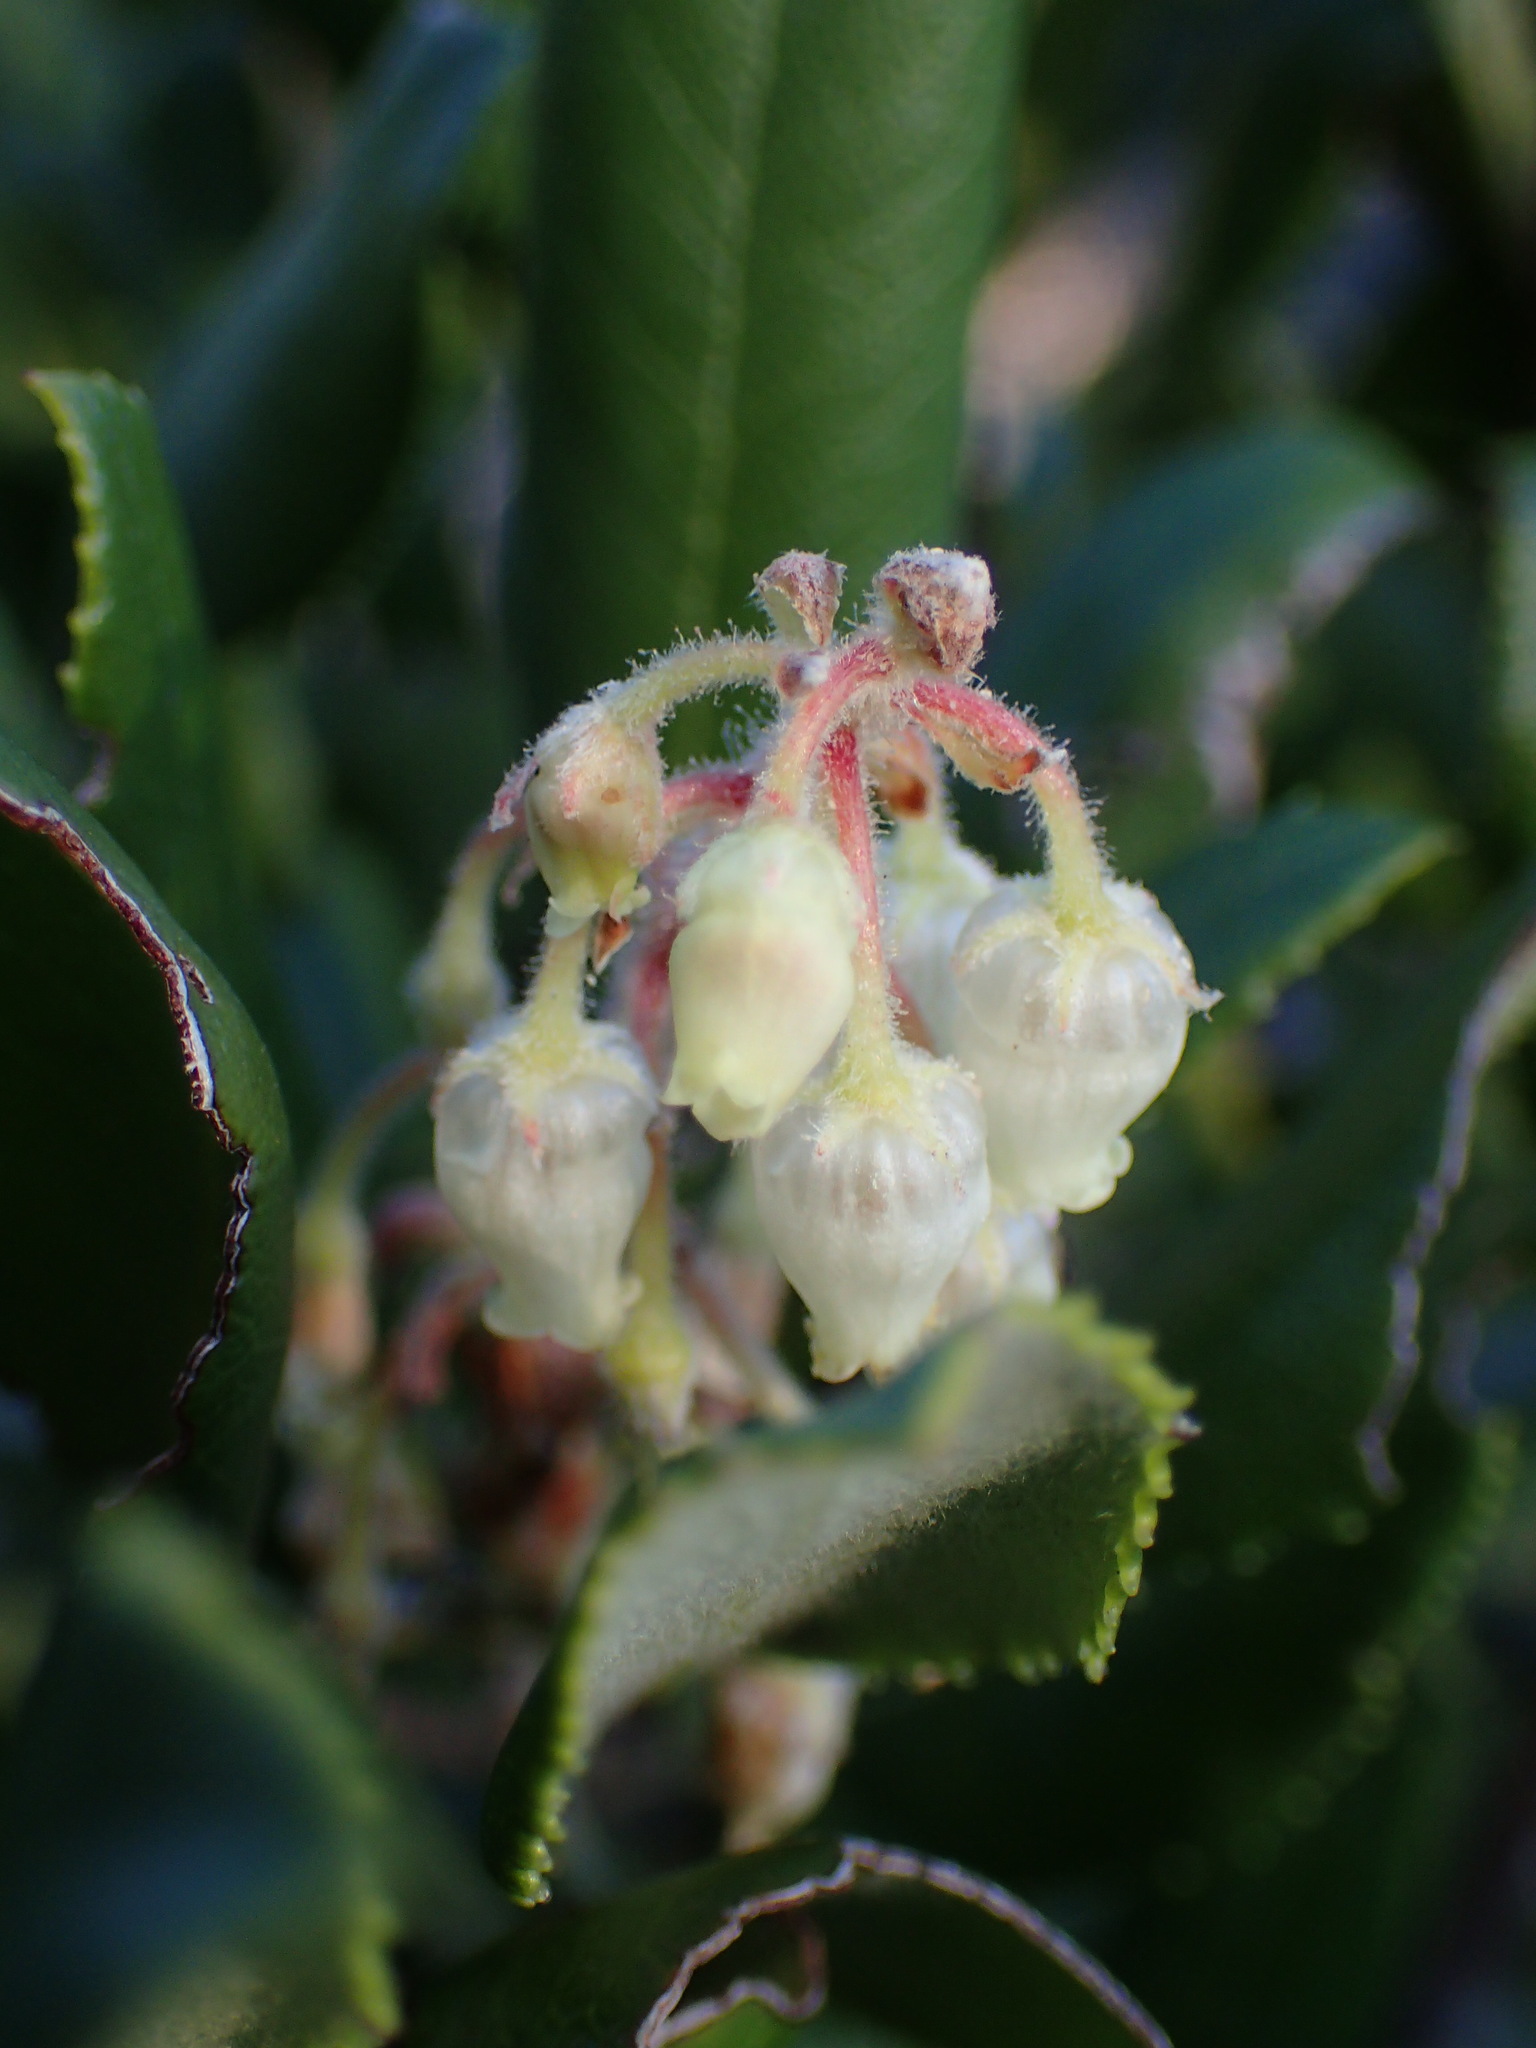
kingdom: Plantae
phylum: Tracheophyta
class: Magnoliopsida
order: Ericales
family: Ericaceae
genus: Comarostaphylis
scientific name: Comarostaphylis diversifolia
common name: Summer-holly
